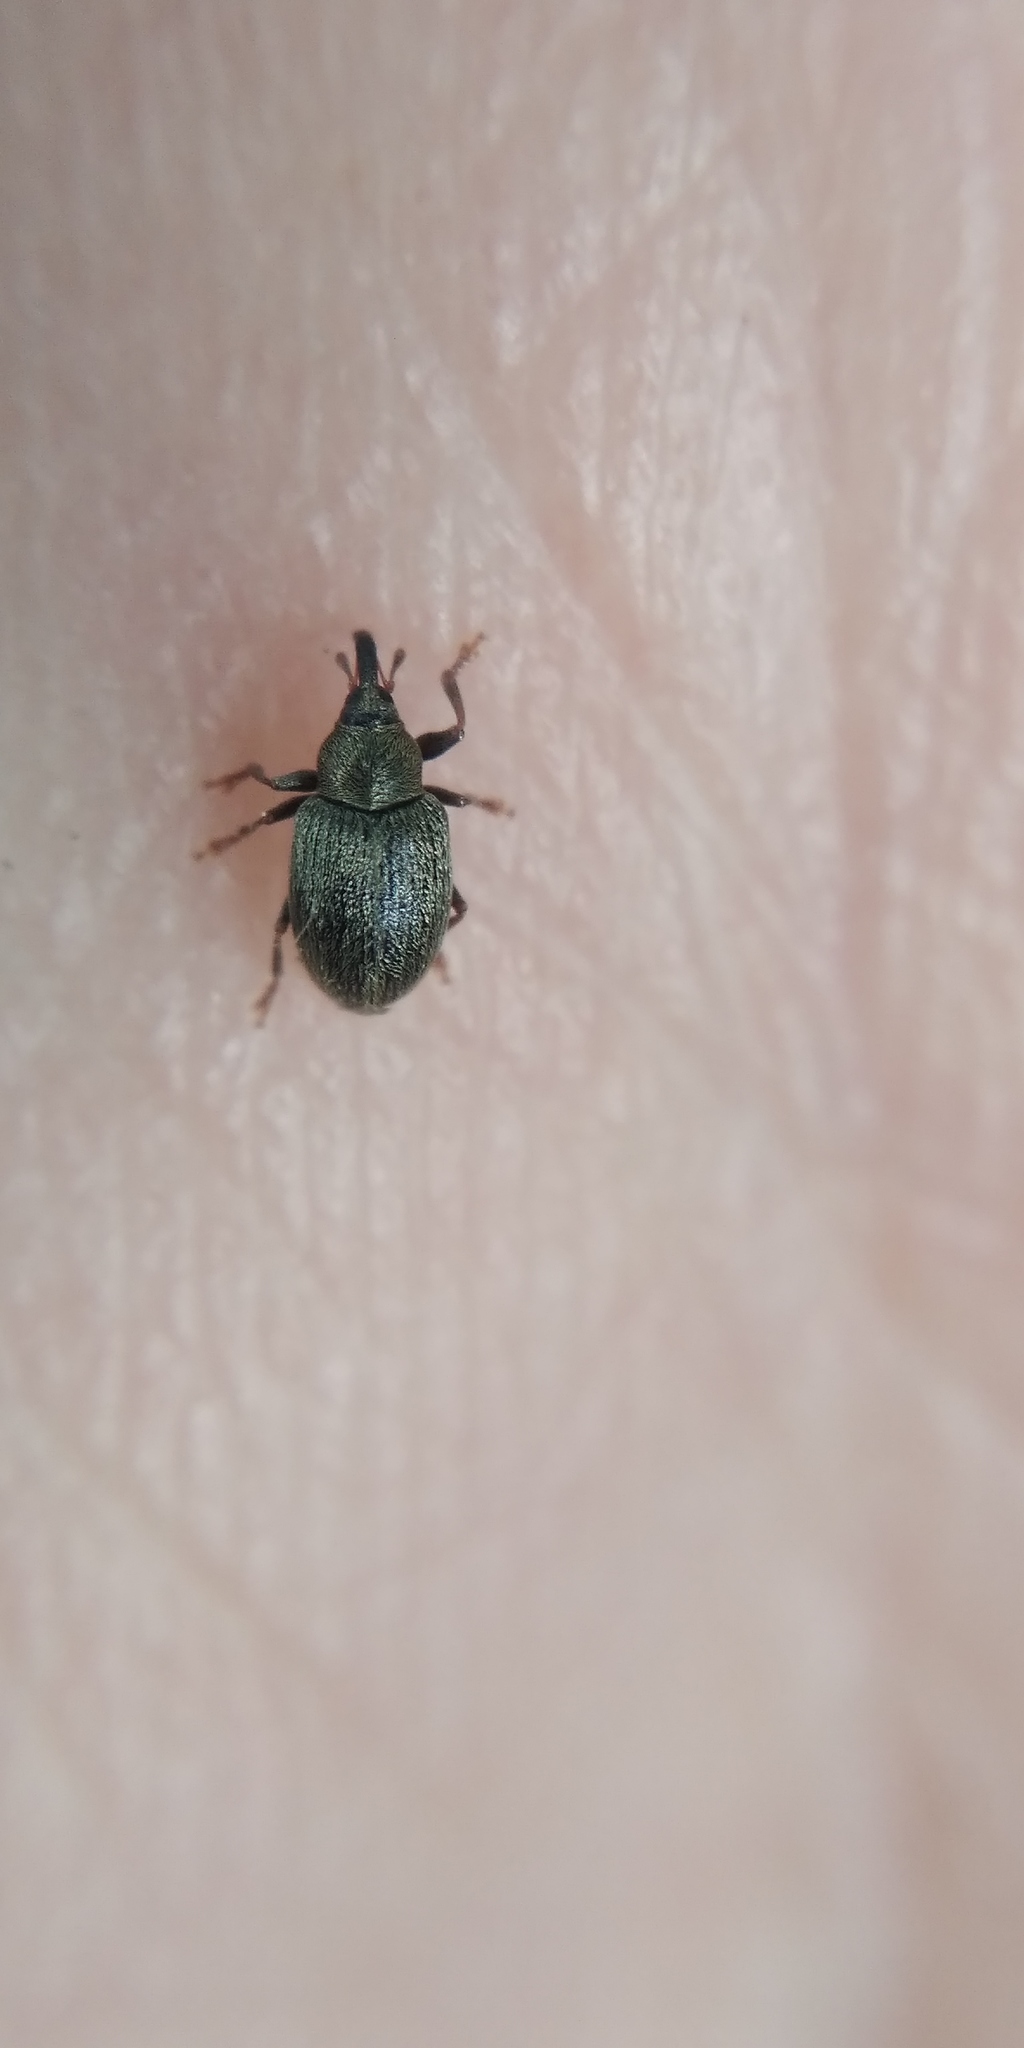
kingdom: Animalia
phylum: Arthropoda
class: Insecta
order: Coleoptera
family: Curculionidae
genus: Acalyptus
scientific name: Acalyptus carpini
